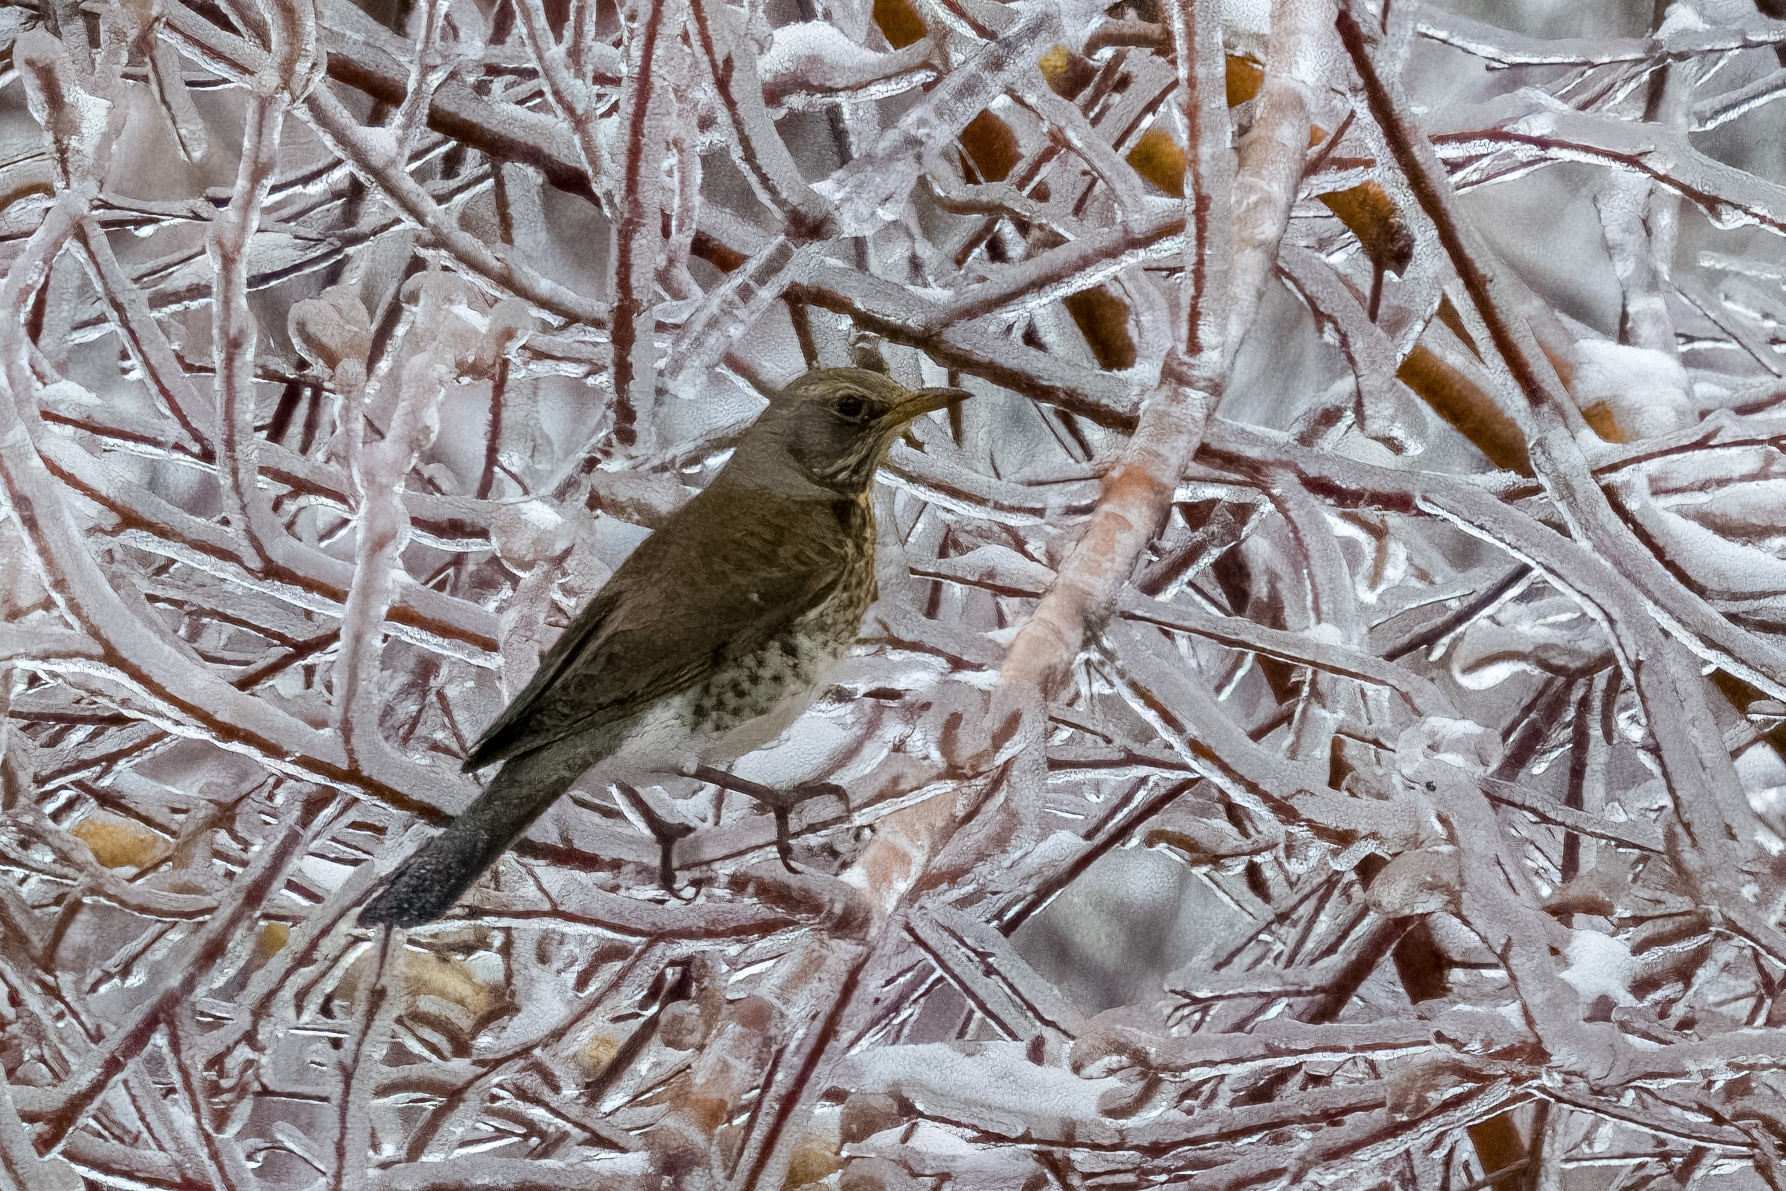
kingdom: Animalia
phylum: Chordata
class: Aves
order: Passeriformes
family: Turdidae
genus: Turdus
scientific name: Turdus pilaris
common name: Fieldfare
